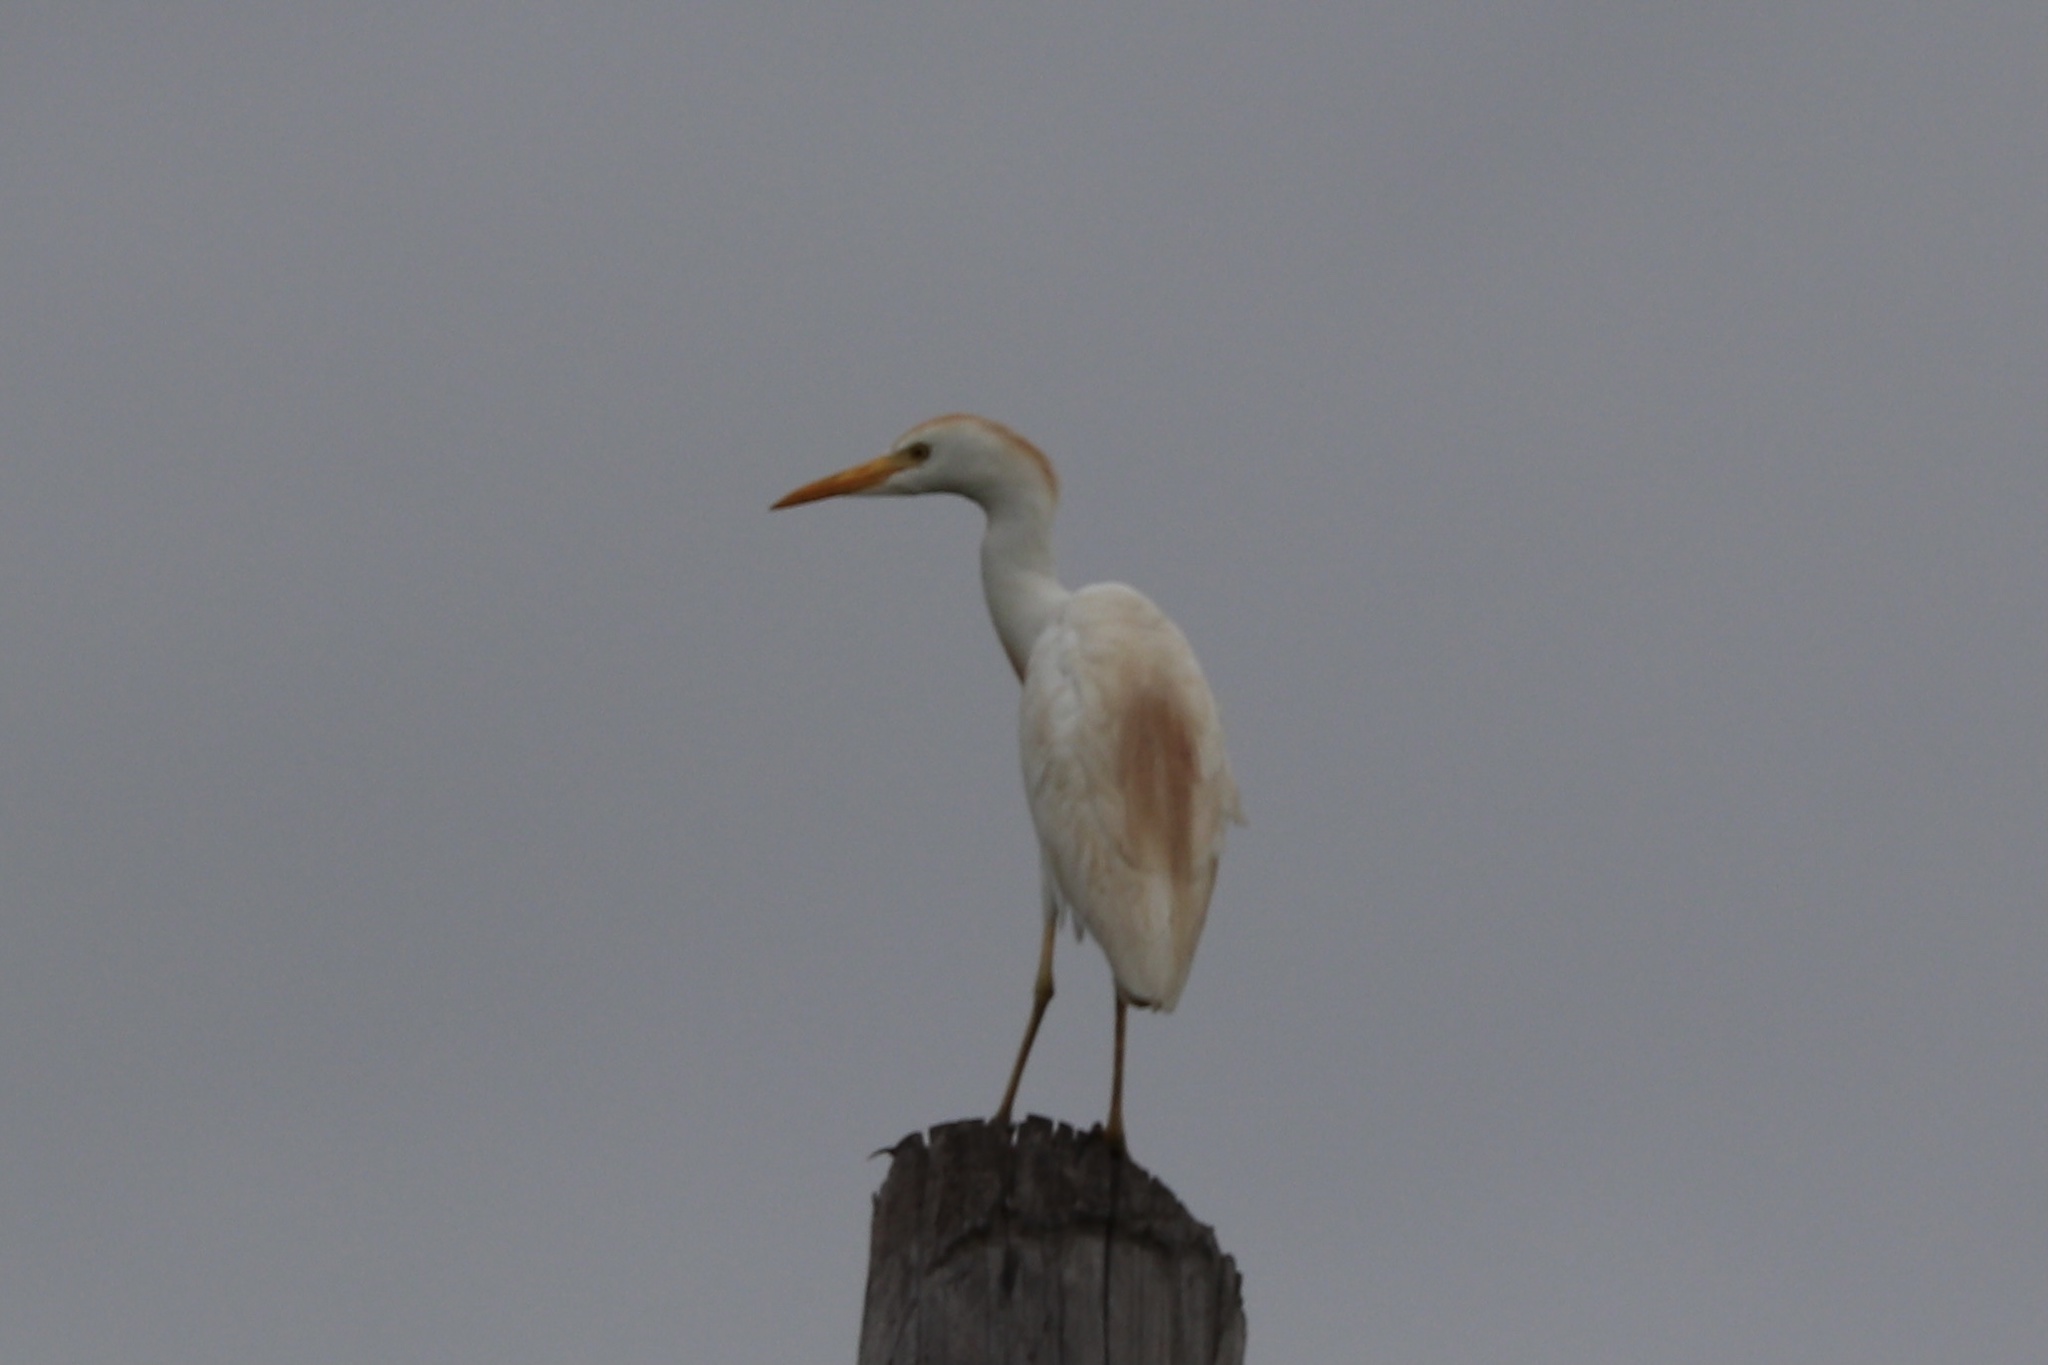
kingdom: Animalia
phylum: Chordata
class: Aves
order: Pelecaniformes
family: Ardeidae
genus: Bubulcus
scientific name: Bubulcus ibis
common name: Cattle egret
